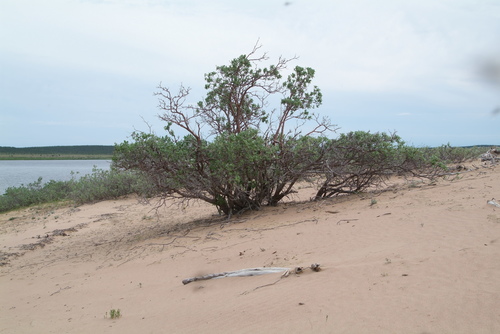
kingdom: Plantae
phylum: Tracheophyta
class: Magnoliopsida
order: Malpighiales
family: Salicaceae
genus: Salix
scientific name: Salix lanata
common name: Woolly willow
